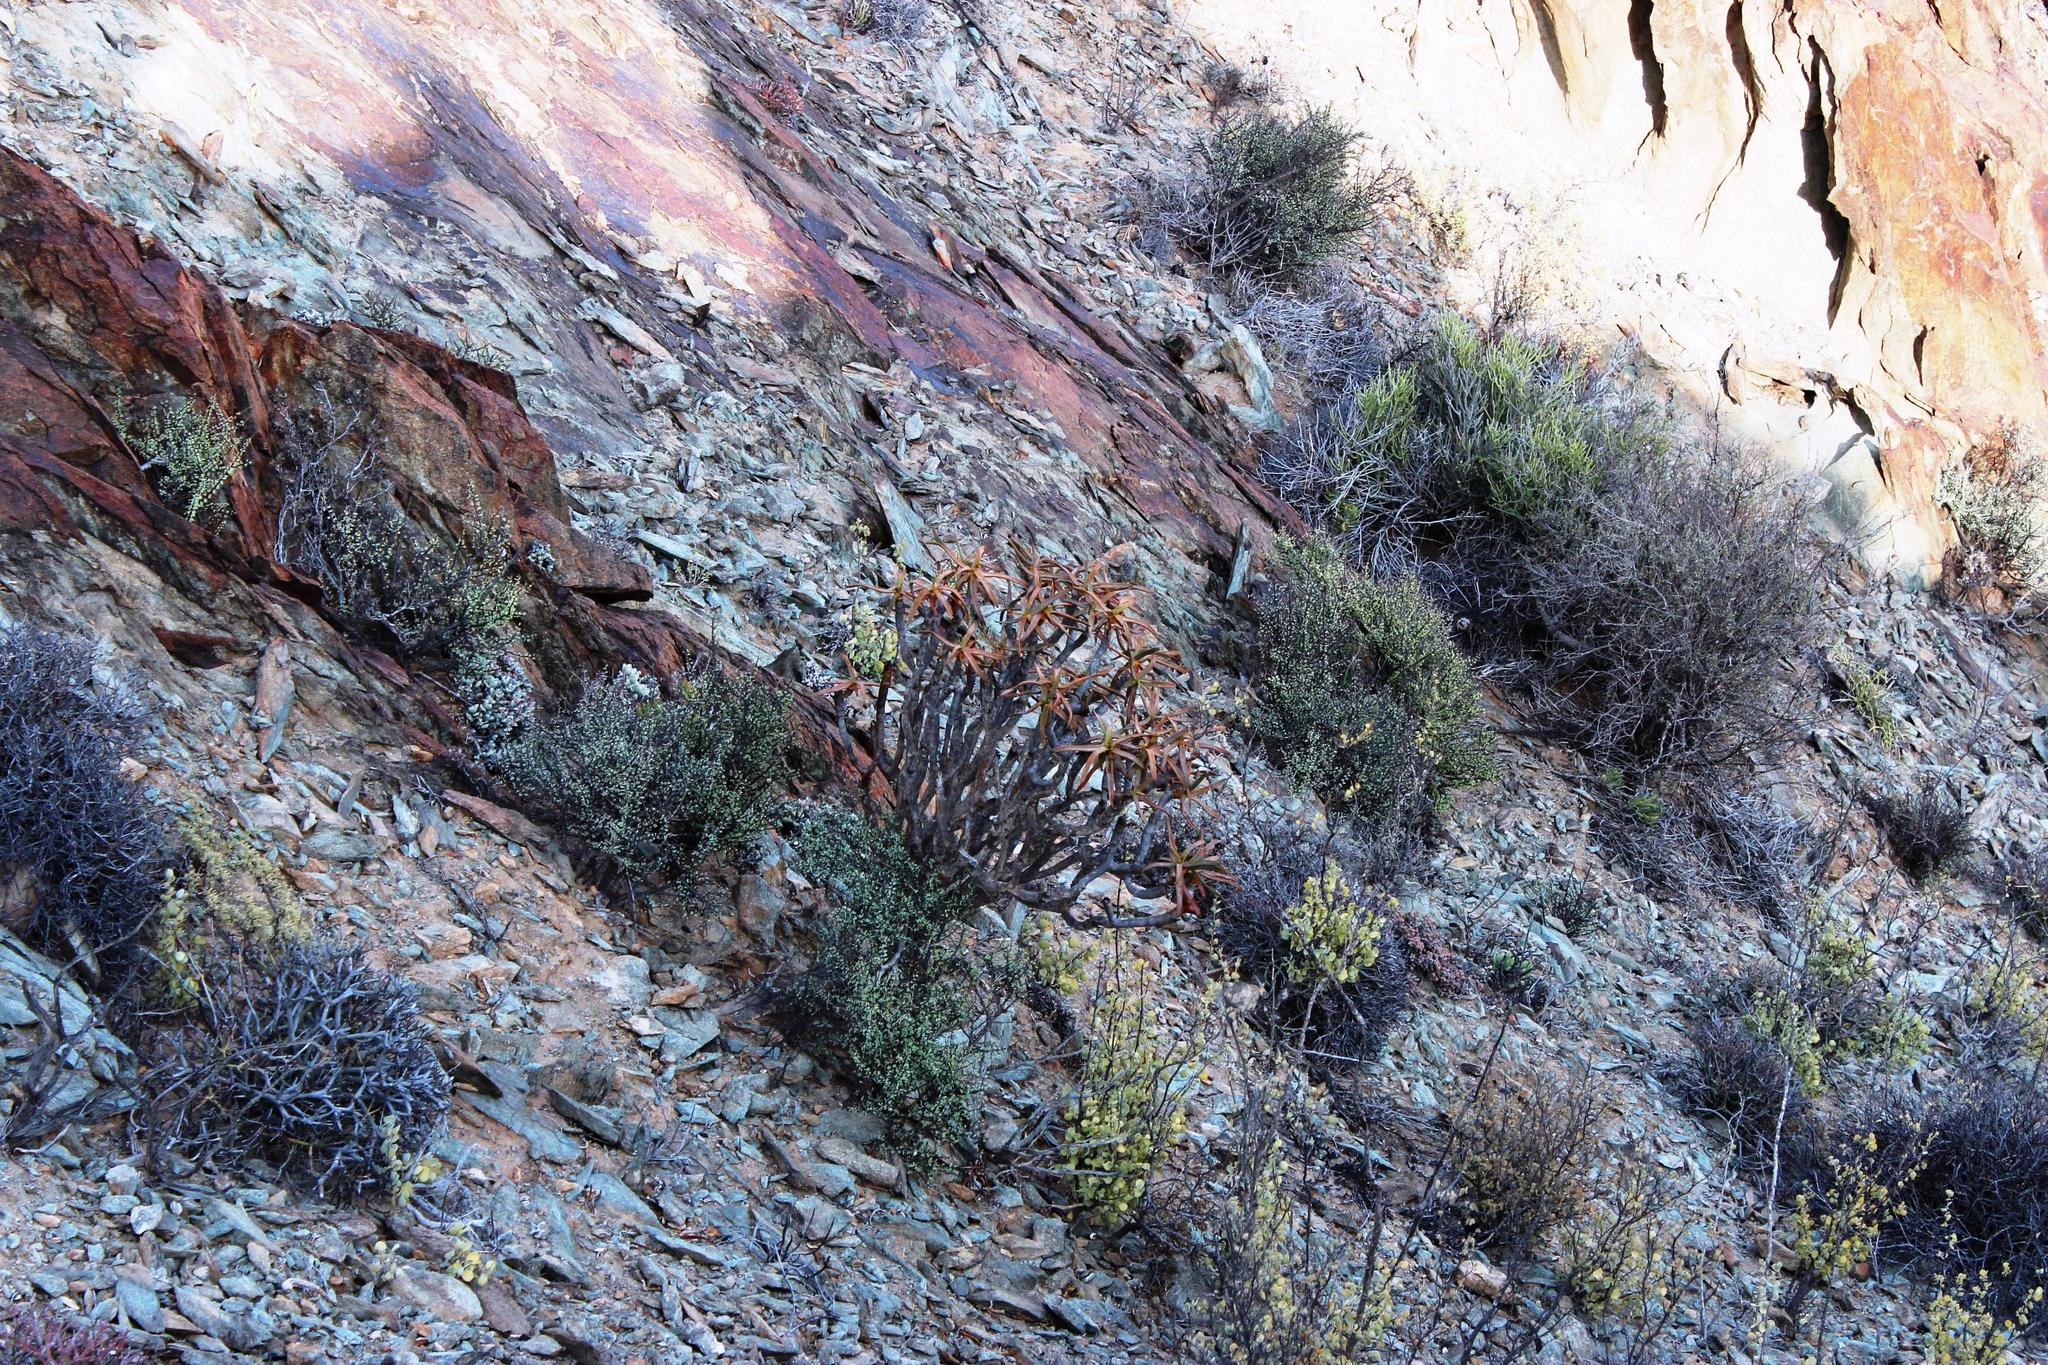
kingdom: Plantae
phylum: Tracheophyta
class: Liliopsida
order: Asparagales
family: Asphodelaceae
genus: Aloidendron
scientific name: Aloidendron ramosissimum
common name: Bush quiver tree
